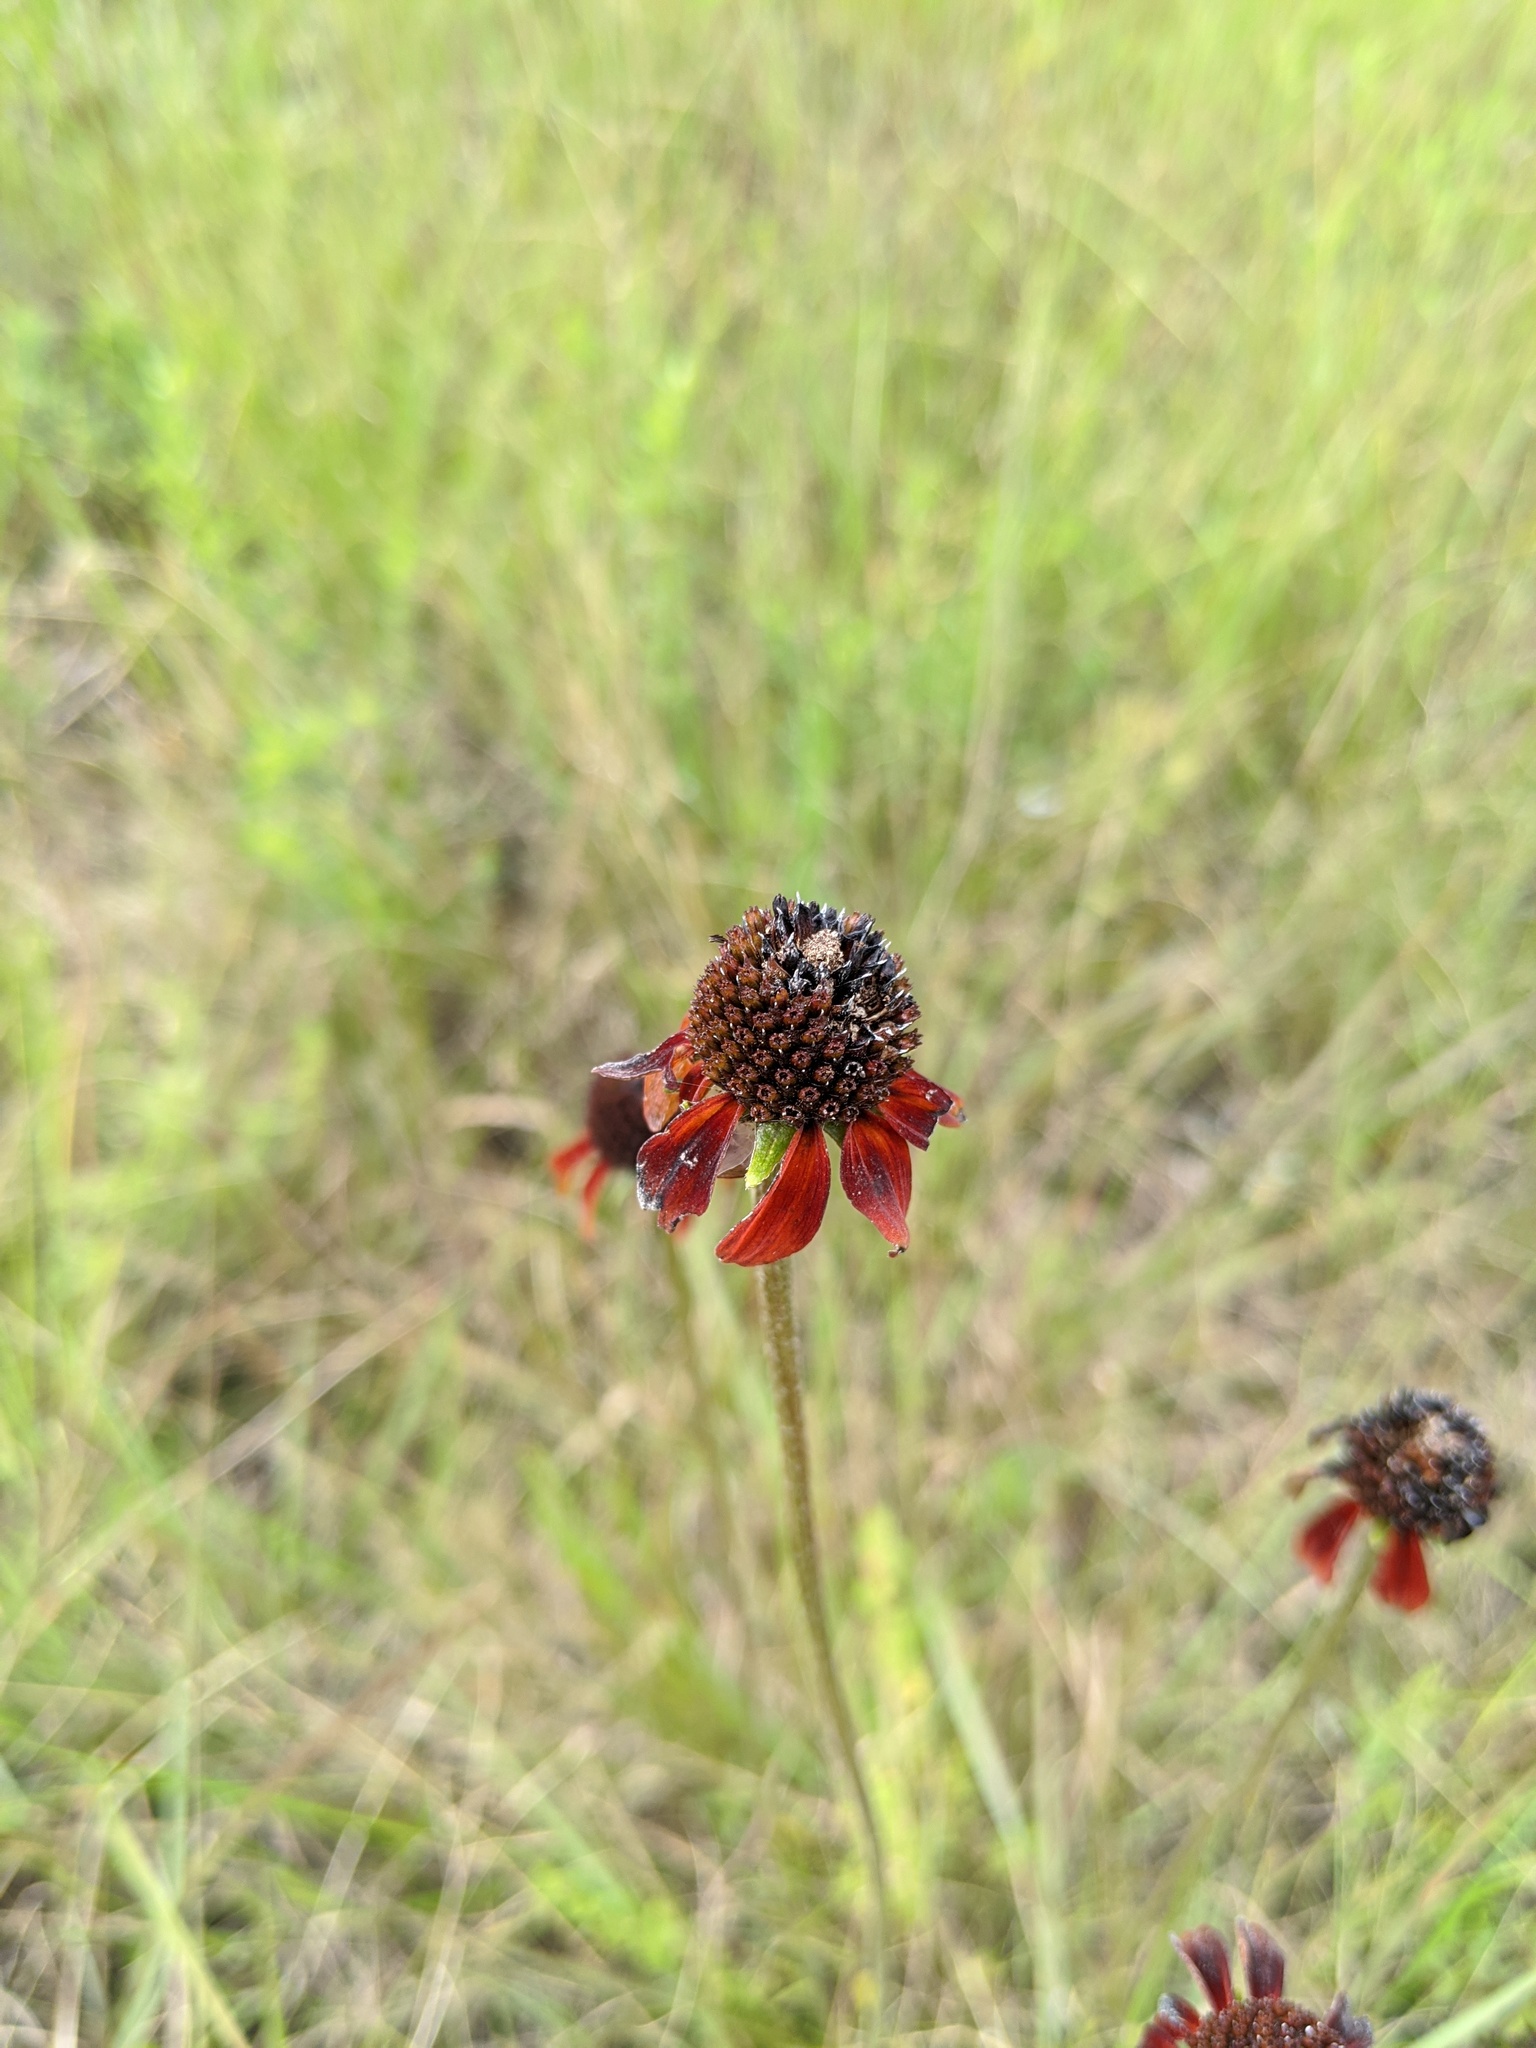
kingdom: Plantae
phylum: Tracheophyta
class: Magnoliopsida
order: Asterales
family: Asteraceae
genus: Rudbeckia
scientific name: Rudbeckia graminifolia
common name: Grass-leaf coneflower
